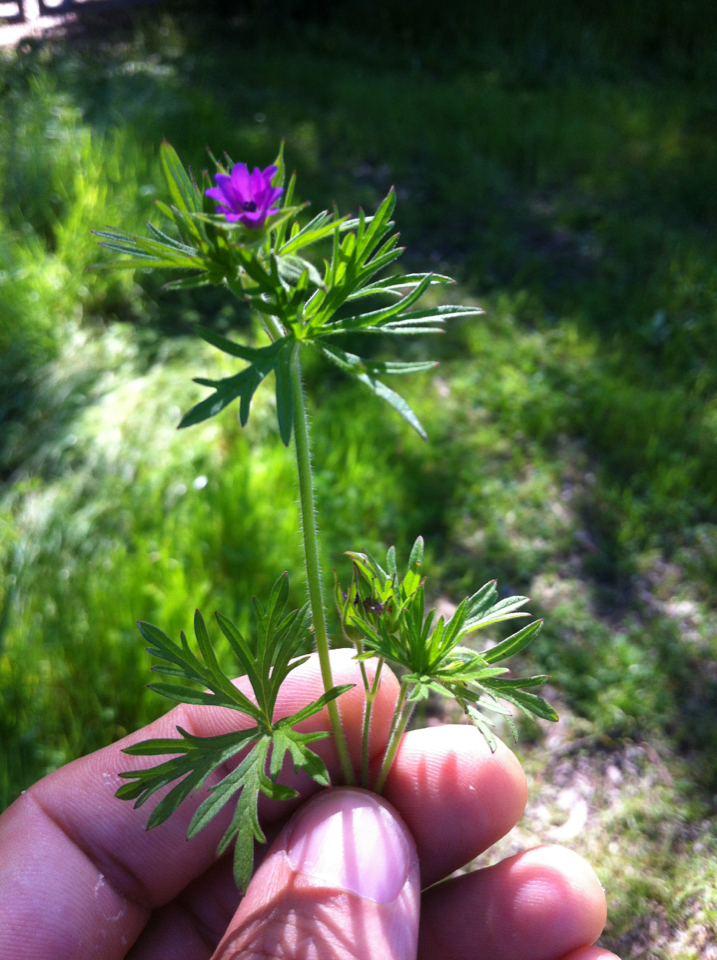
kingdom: Plantae
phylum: Tracheophyta
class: Magnoliopsida
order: Geraniales
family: Geraniaceae
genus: Geranium
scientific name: Geranium dissectum
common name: Cut-leaved crane's-bill
